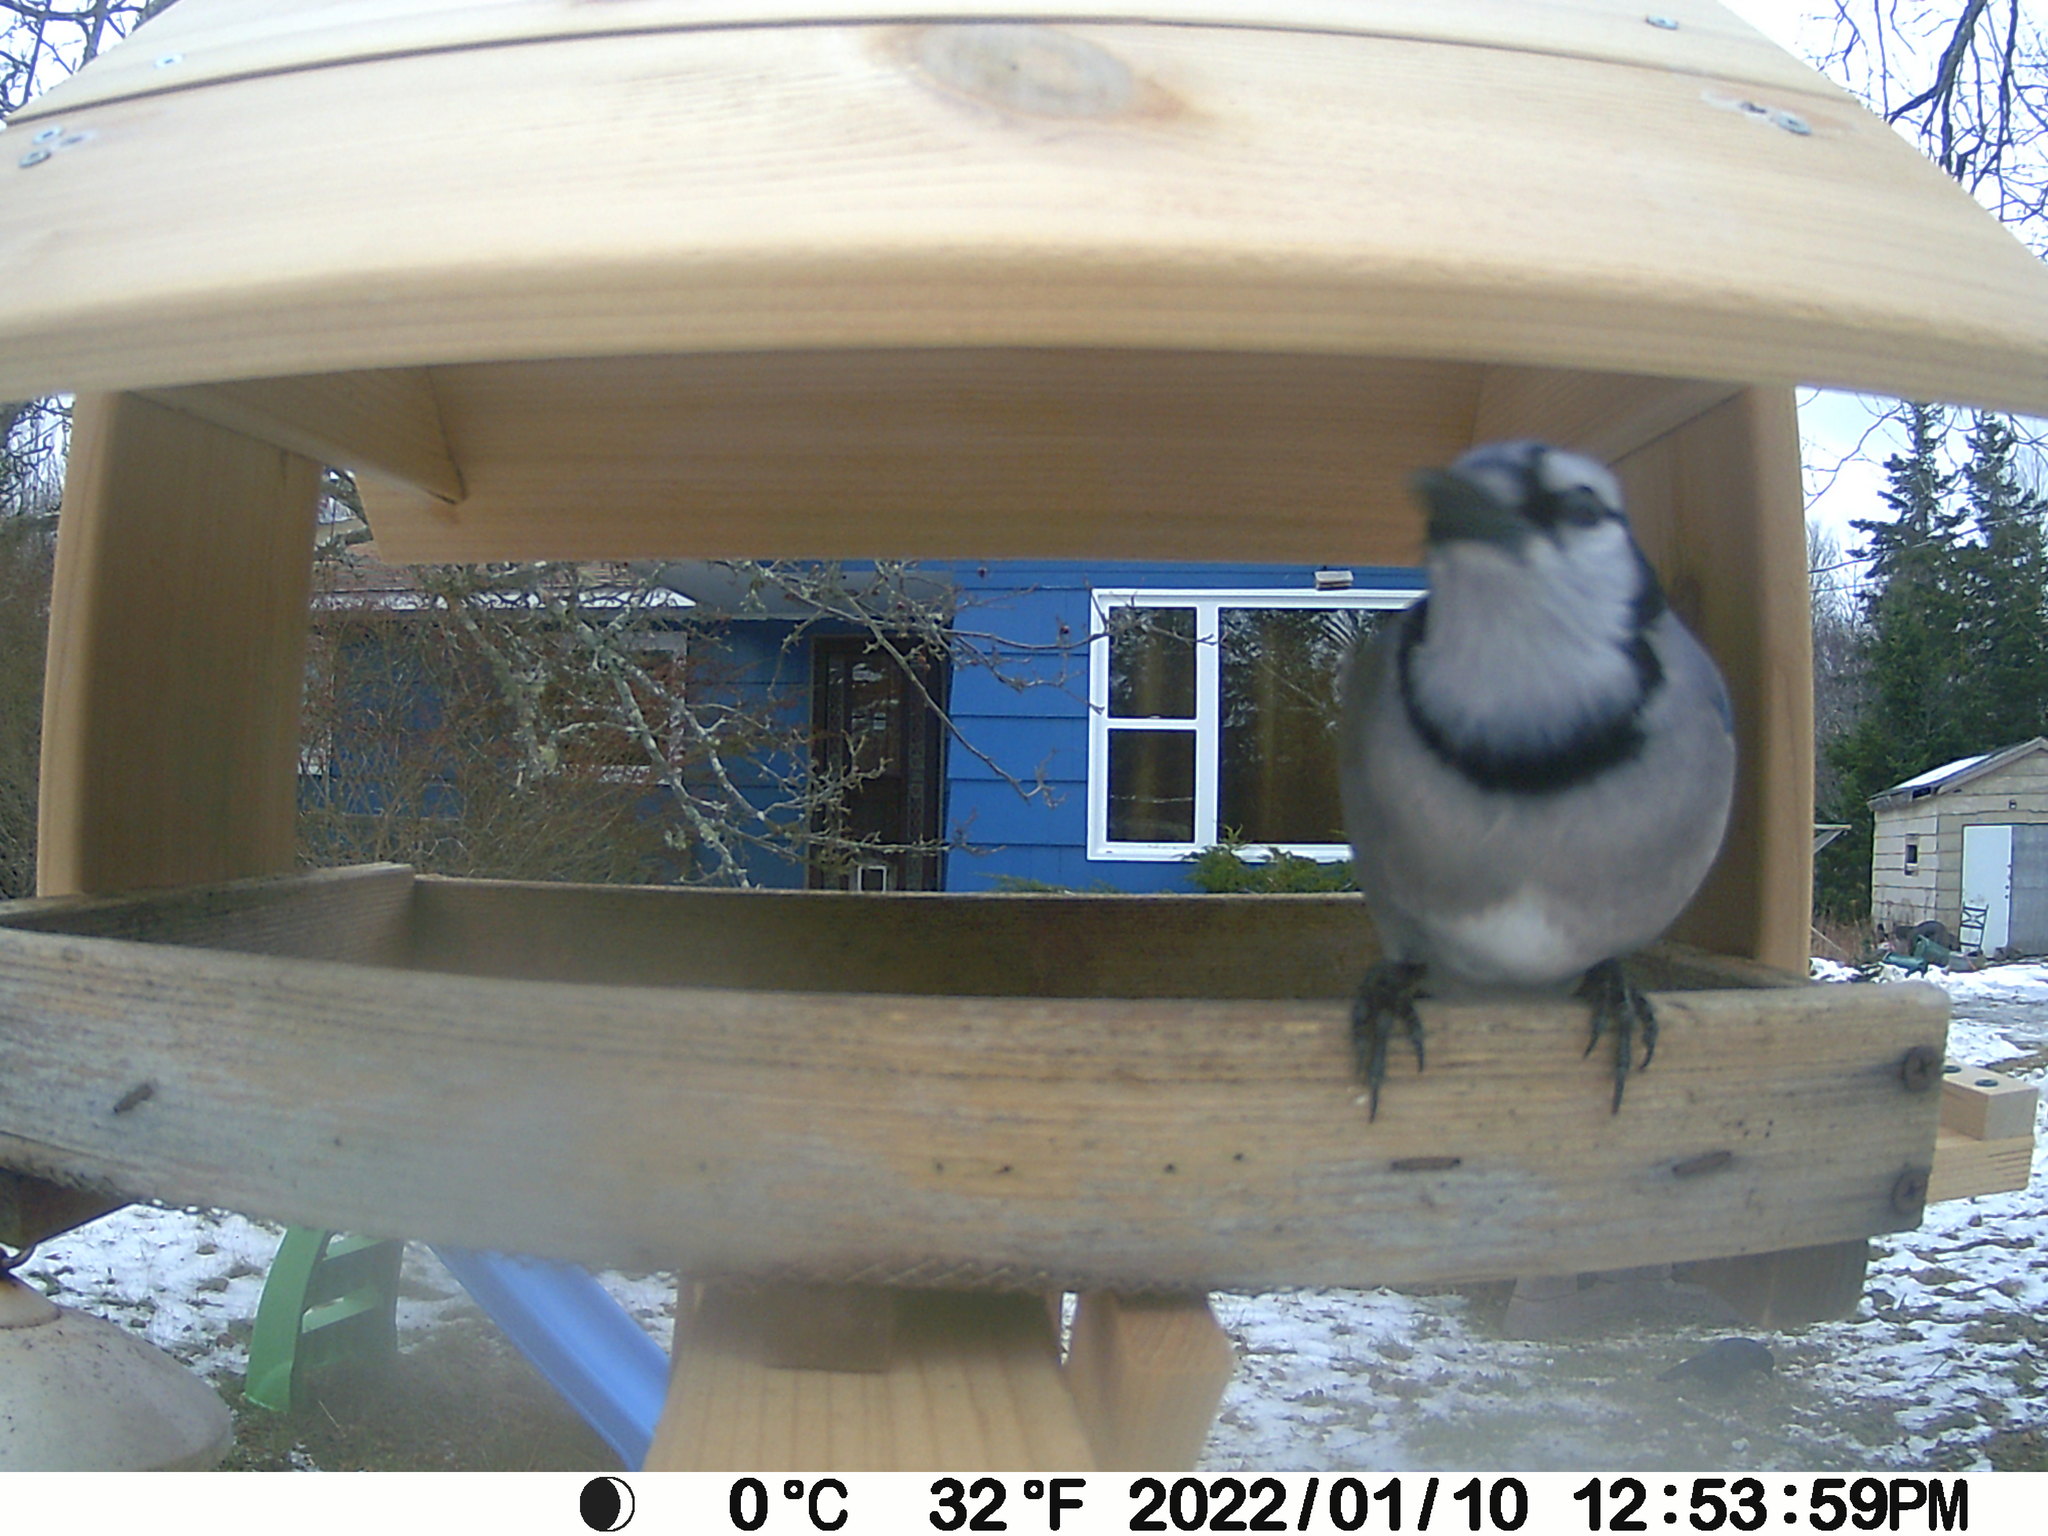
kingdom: Animalia
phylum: Chordata
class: Aves
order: Passeriformes
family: Corvidae
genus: Cyanocitta
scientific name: Cyanocitta cristata
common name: Blue jay
